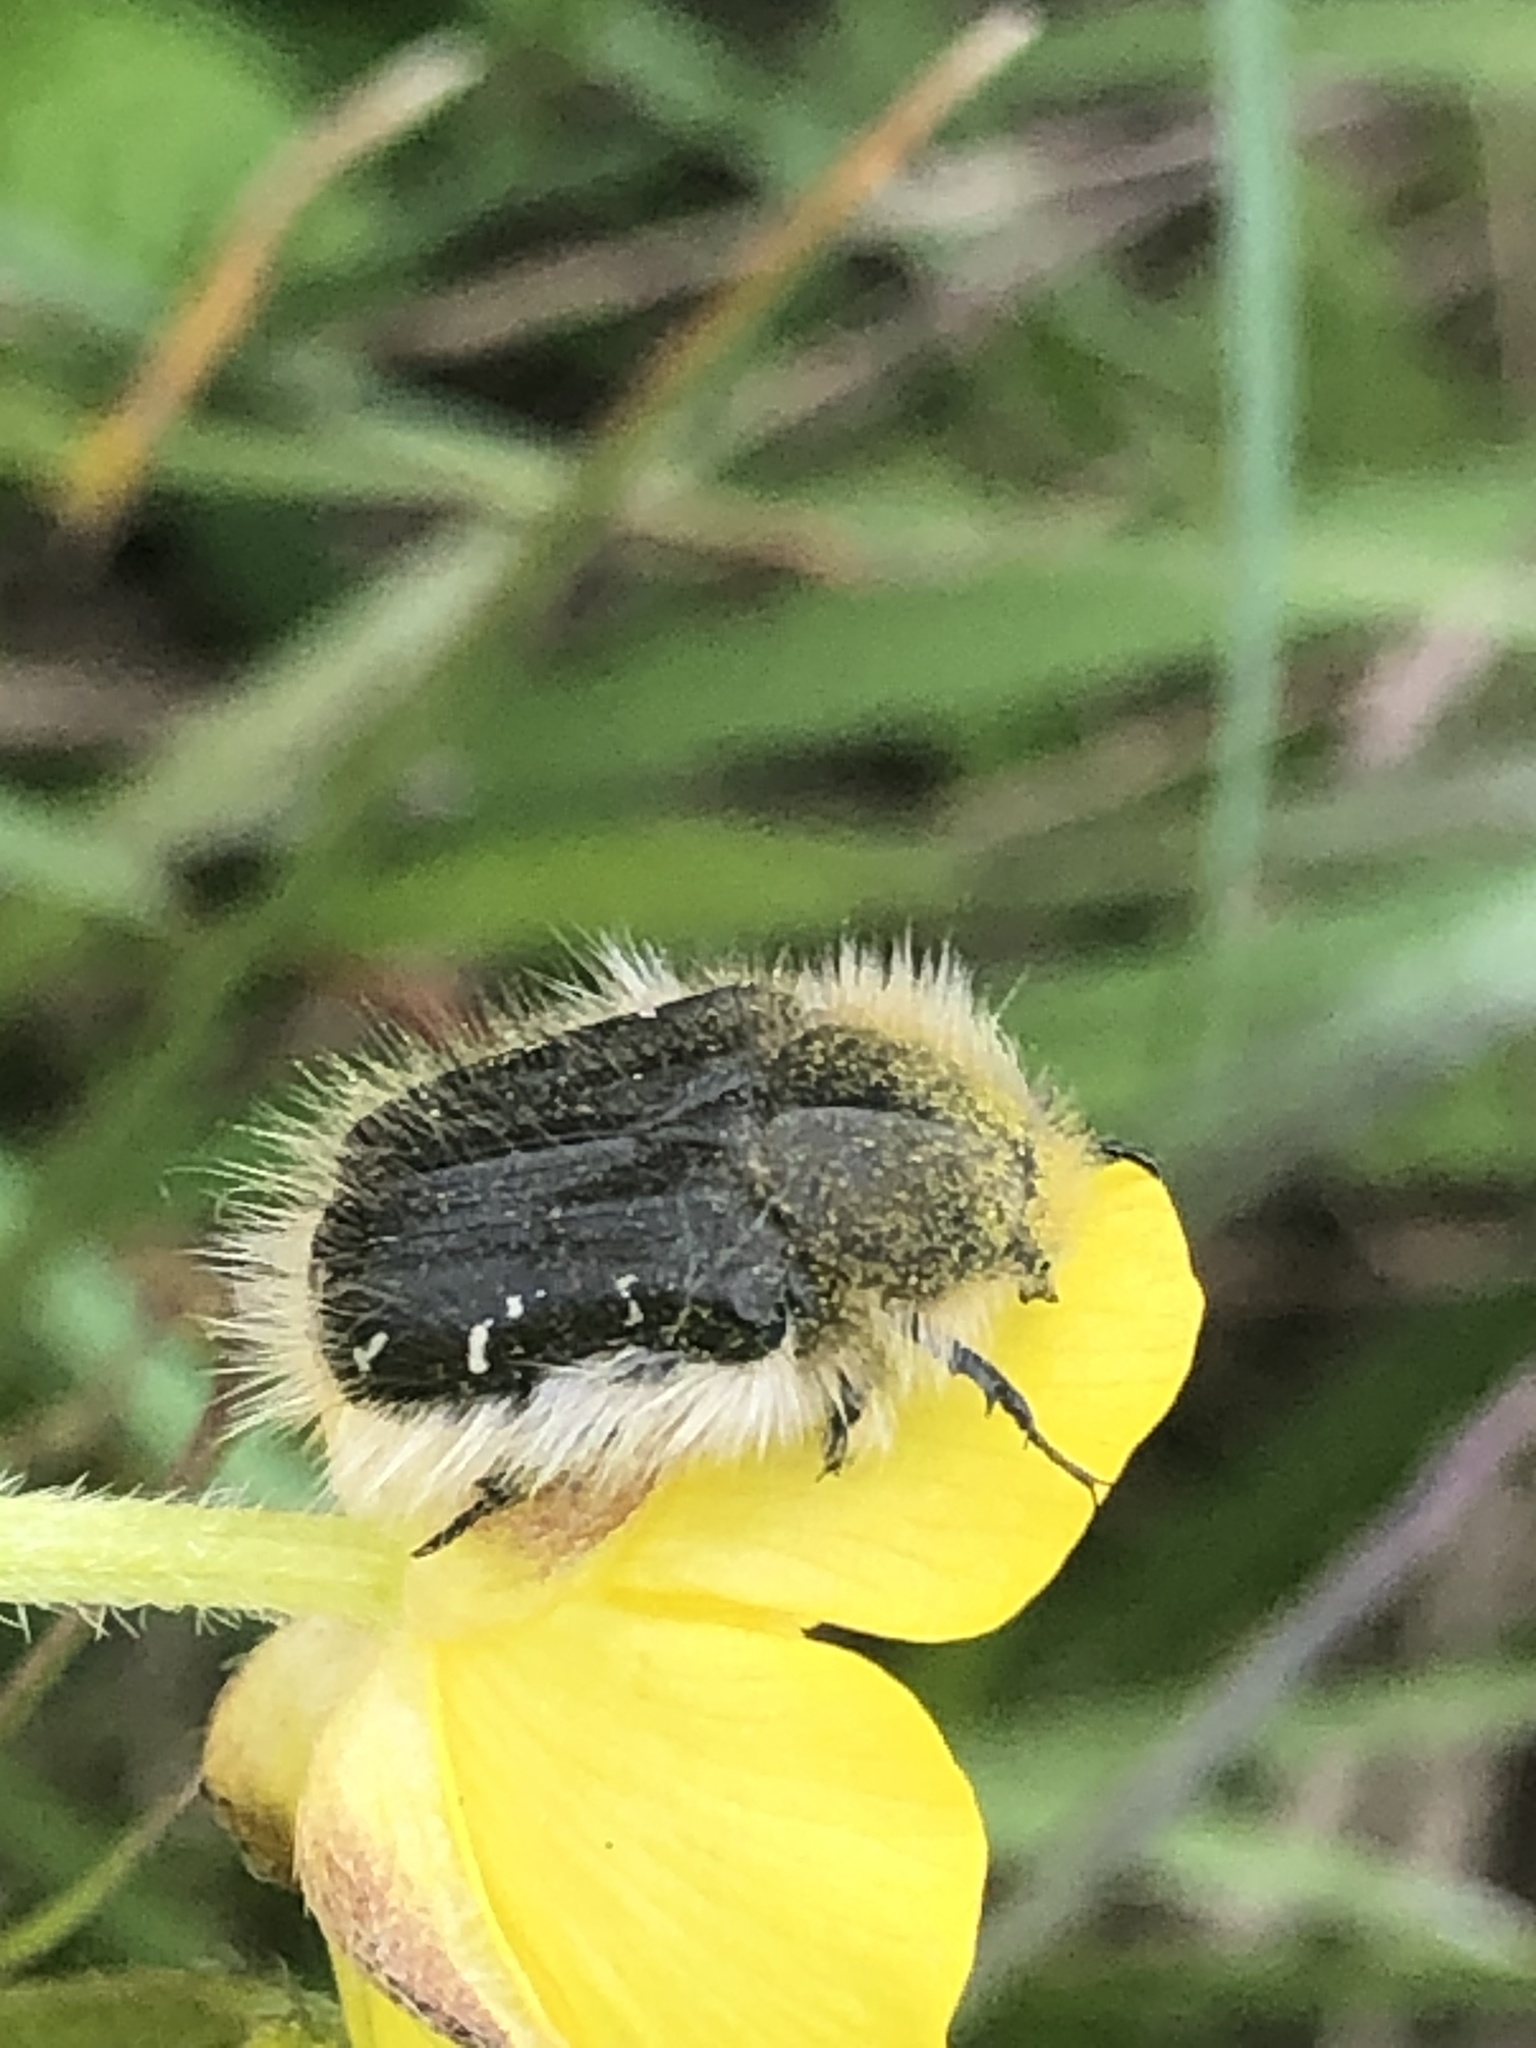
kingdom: Animalia
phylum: Arthropoda
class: Insecta
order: Coleoptera
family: Scarabaeidae
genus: Tropinota
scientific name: Tropinota hirta
